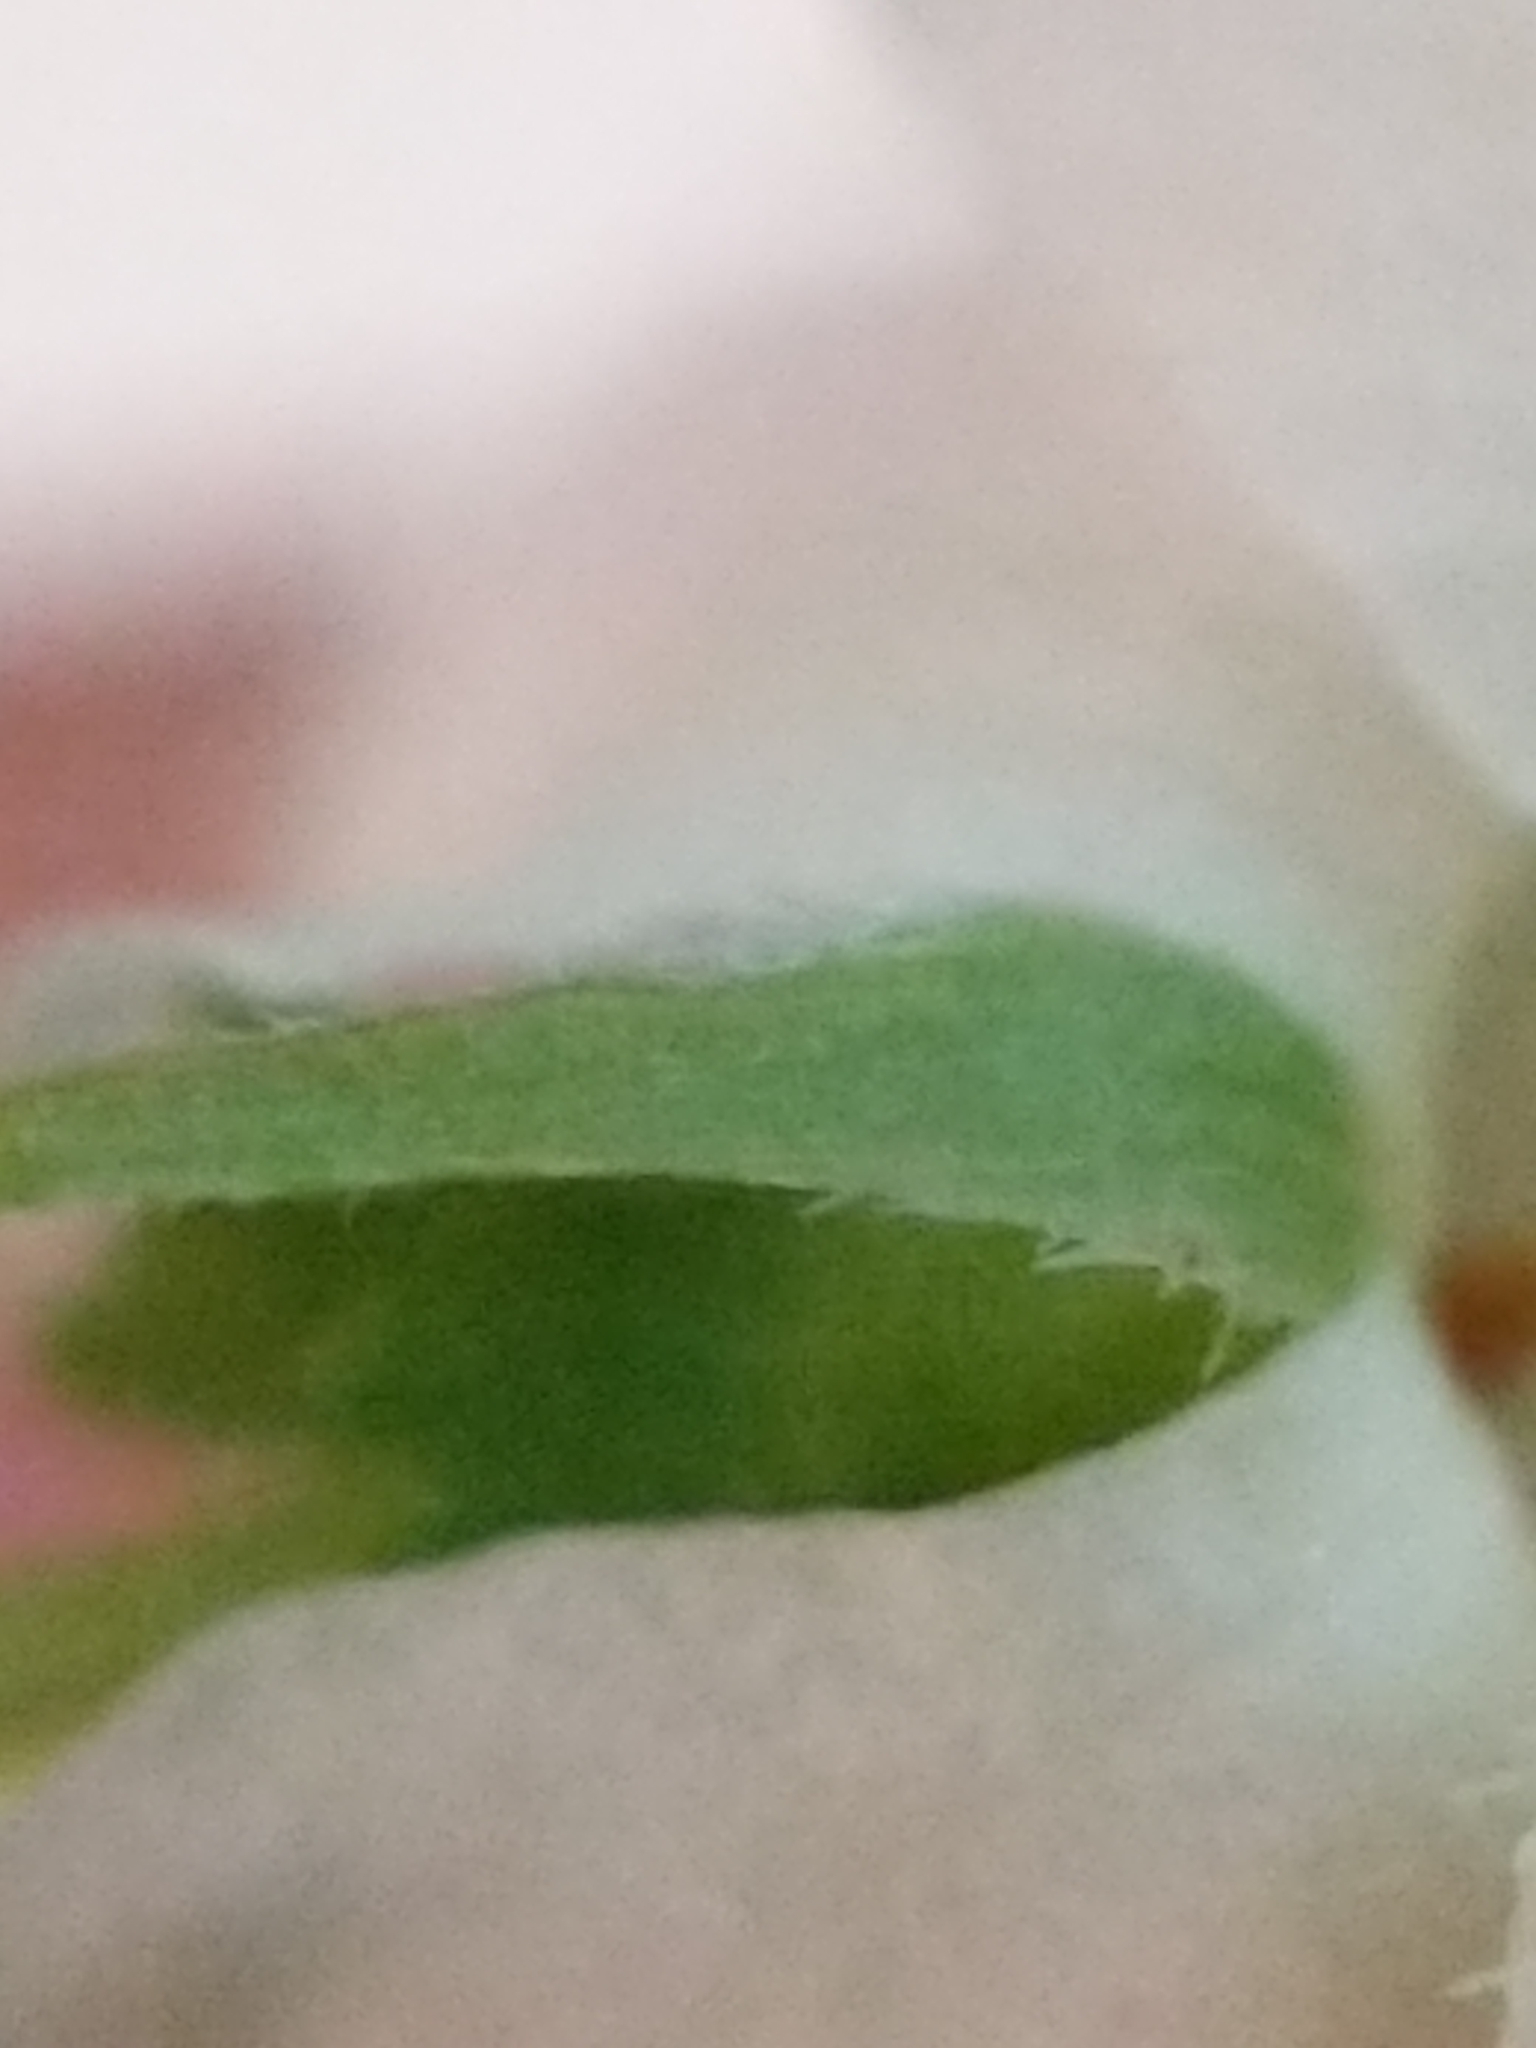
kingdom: Plantae
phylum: Tracheophyta
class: Magnoliopsida
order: Malpighiales
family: Violaceae
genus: Viola
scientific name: Viola striata
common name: Cream violet
